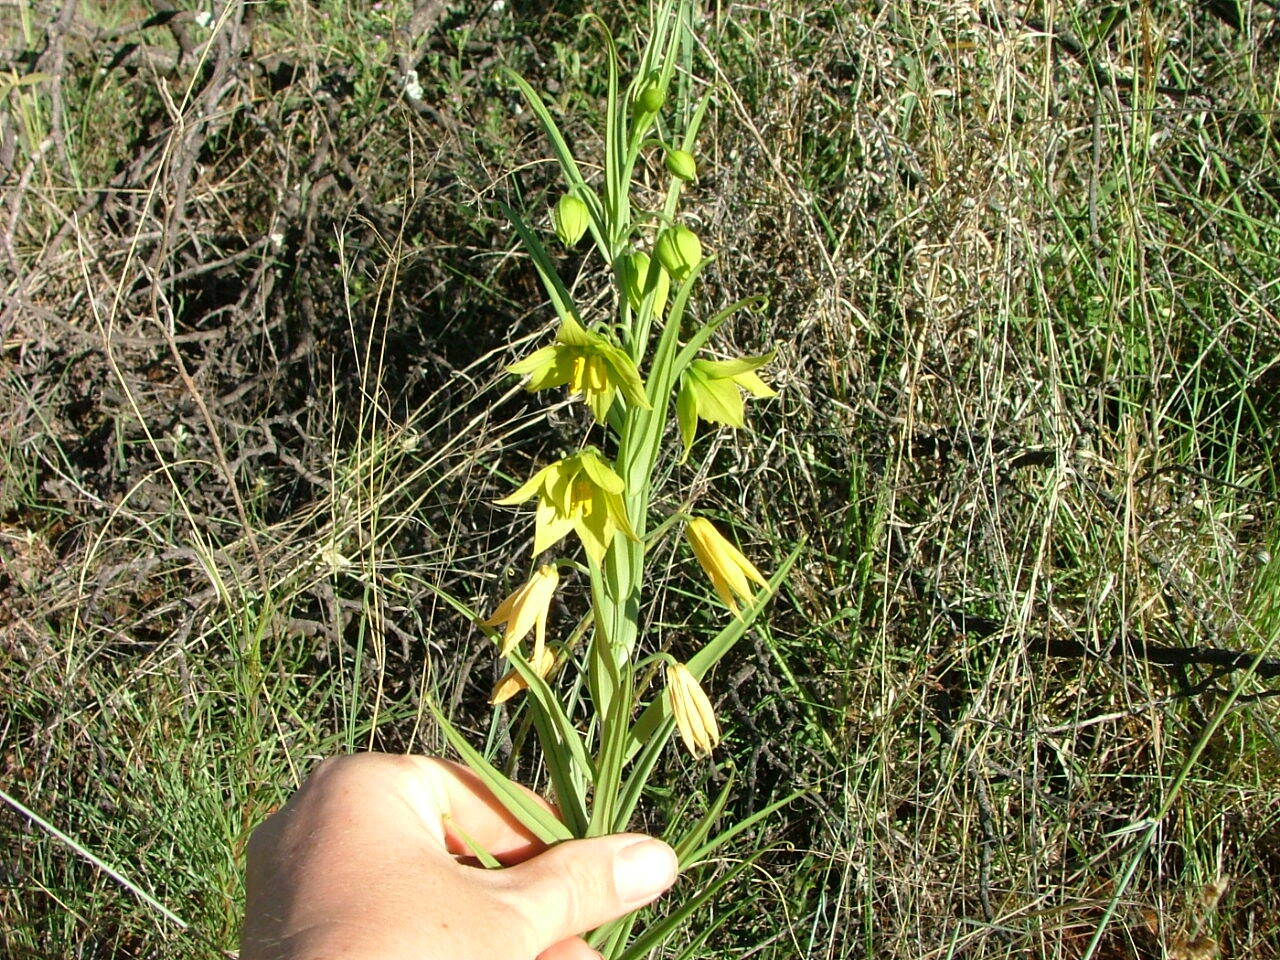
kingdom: Plantae
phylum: Tracheophyta
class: Liliopsida
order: Liliales
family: Colchicaceae
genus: Gloriosa
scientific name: Gloriosa rigidifolia
